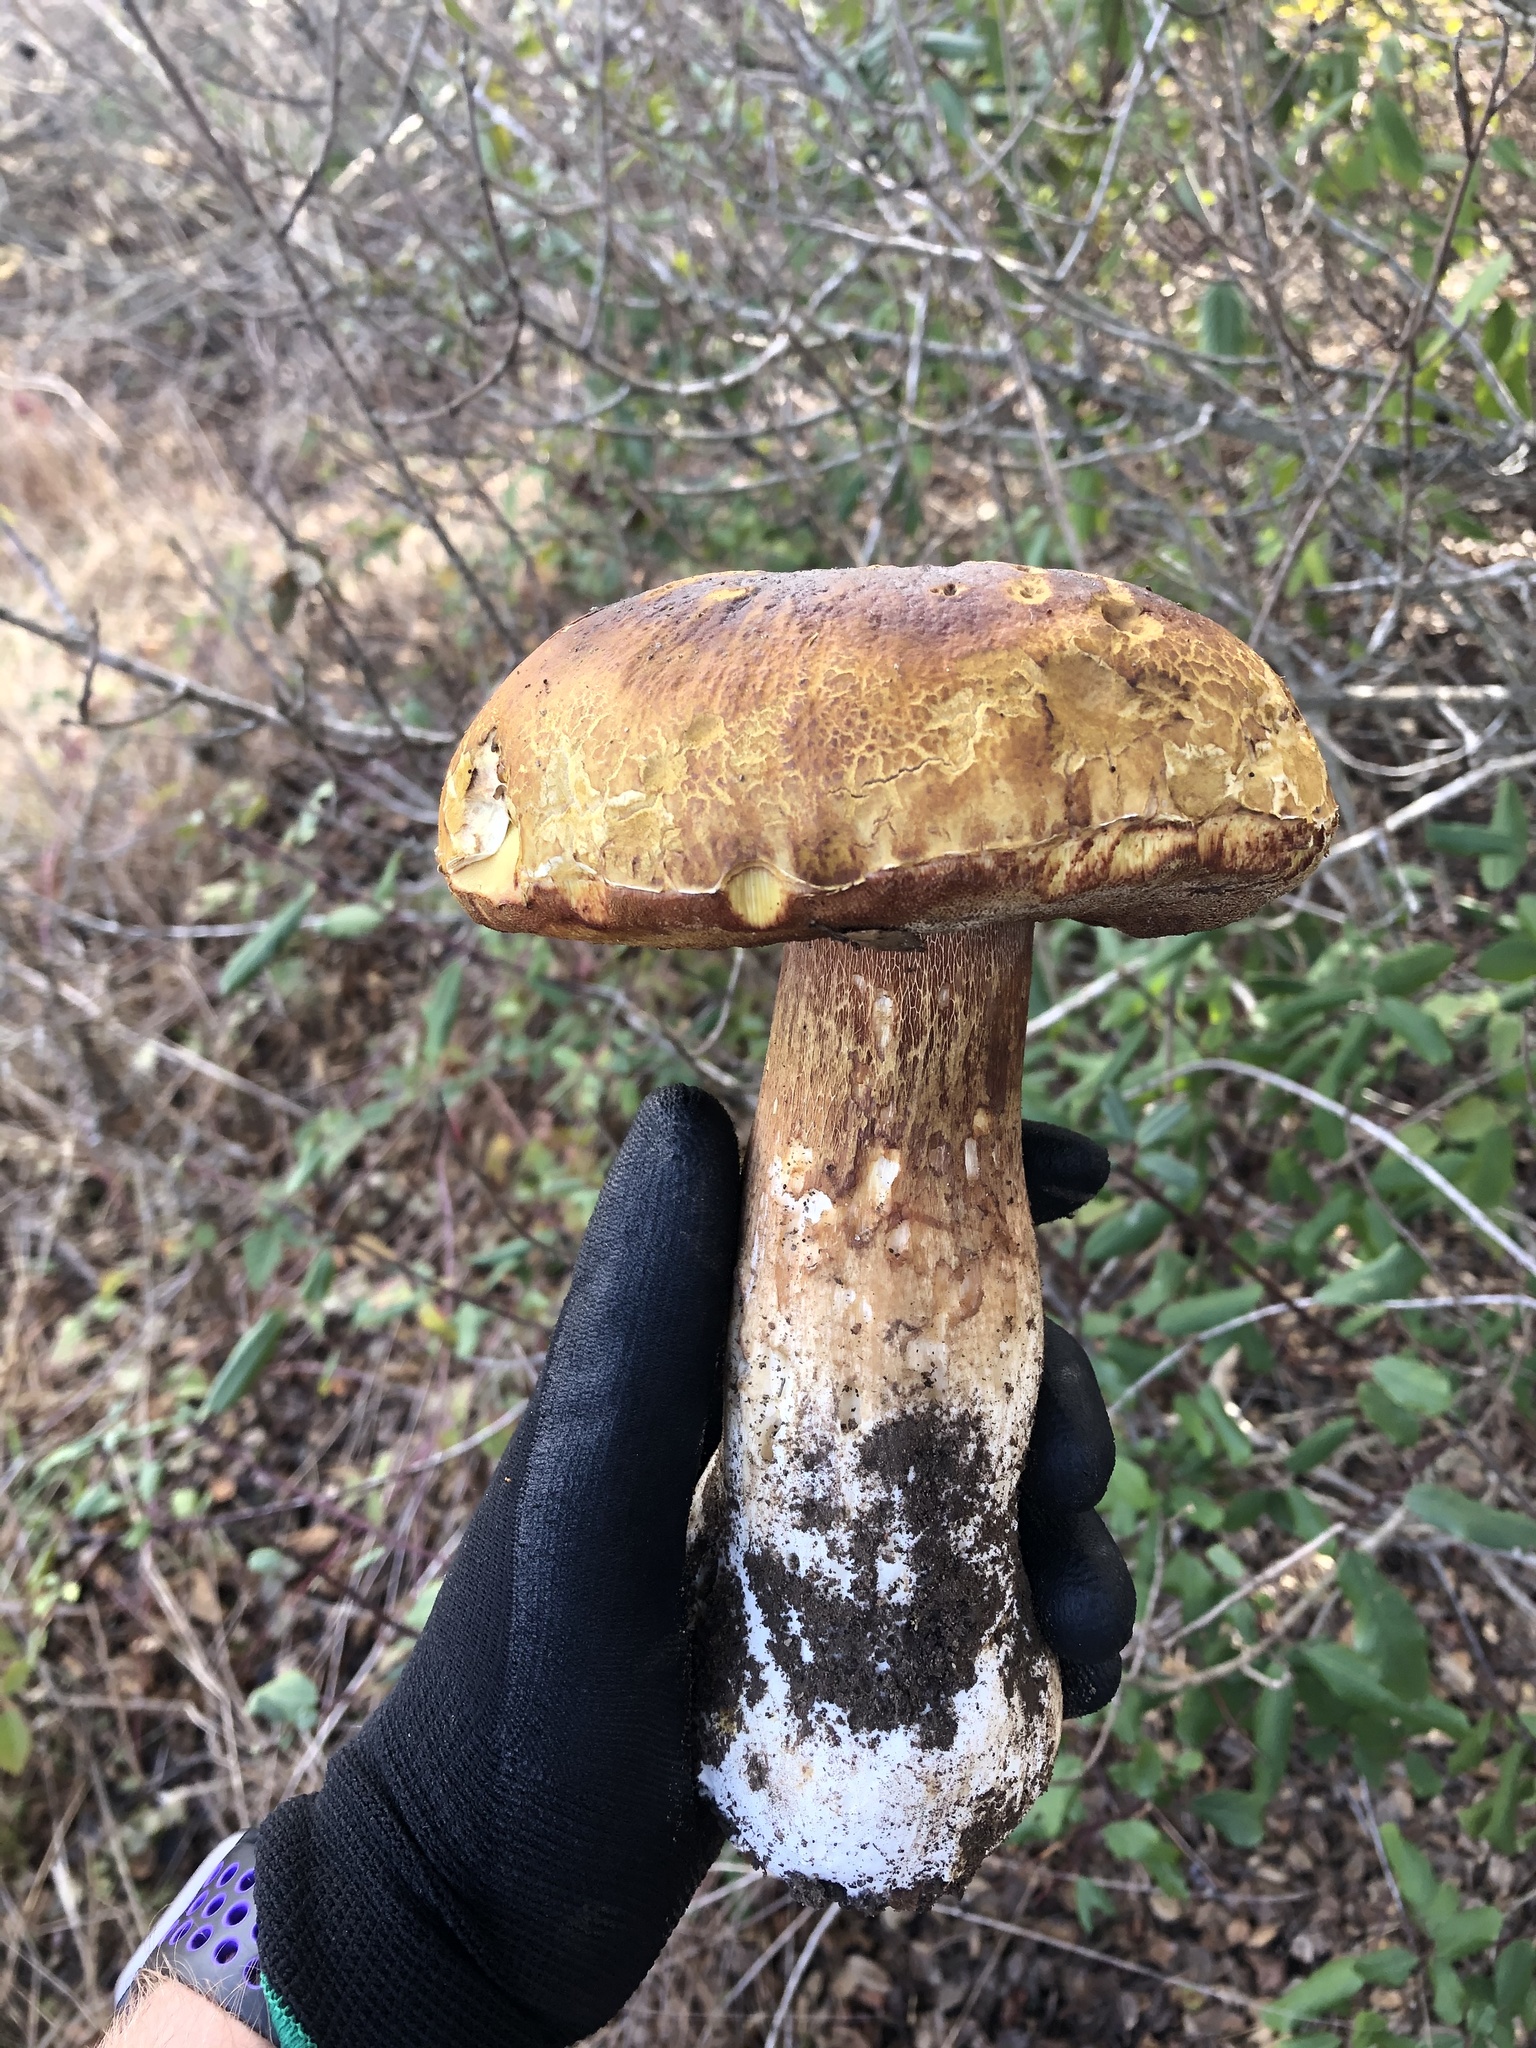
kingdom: Fungi
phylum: Basidiomycota
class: Agaricomycetes
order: Boletales
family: Boletaceae
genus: Boletus
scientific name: Boletus edulis
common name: Cep
